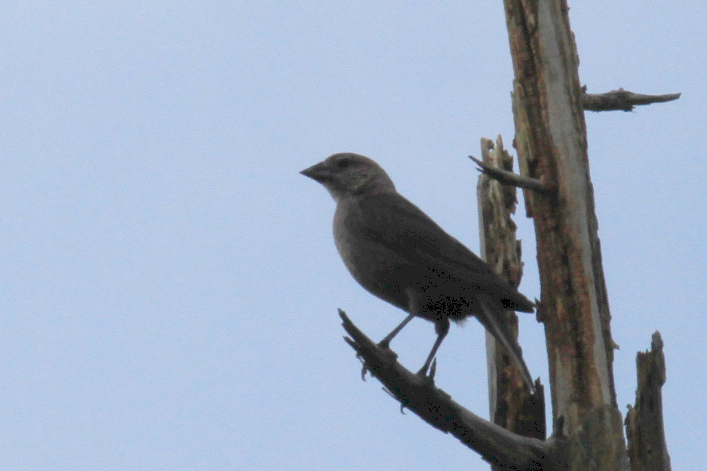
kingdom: Animalia
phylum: Chordata
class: Aves
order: Passeriformes
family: Icteridae
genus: Molothrus
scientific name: Molothrus ater
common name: Brown-headed cowbird
